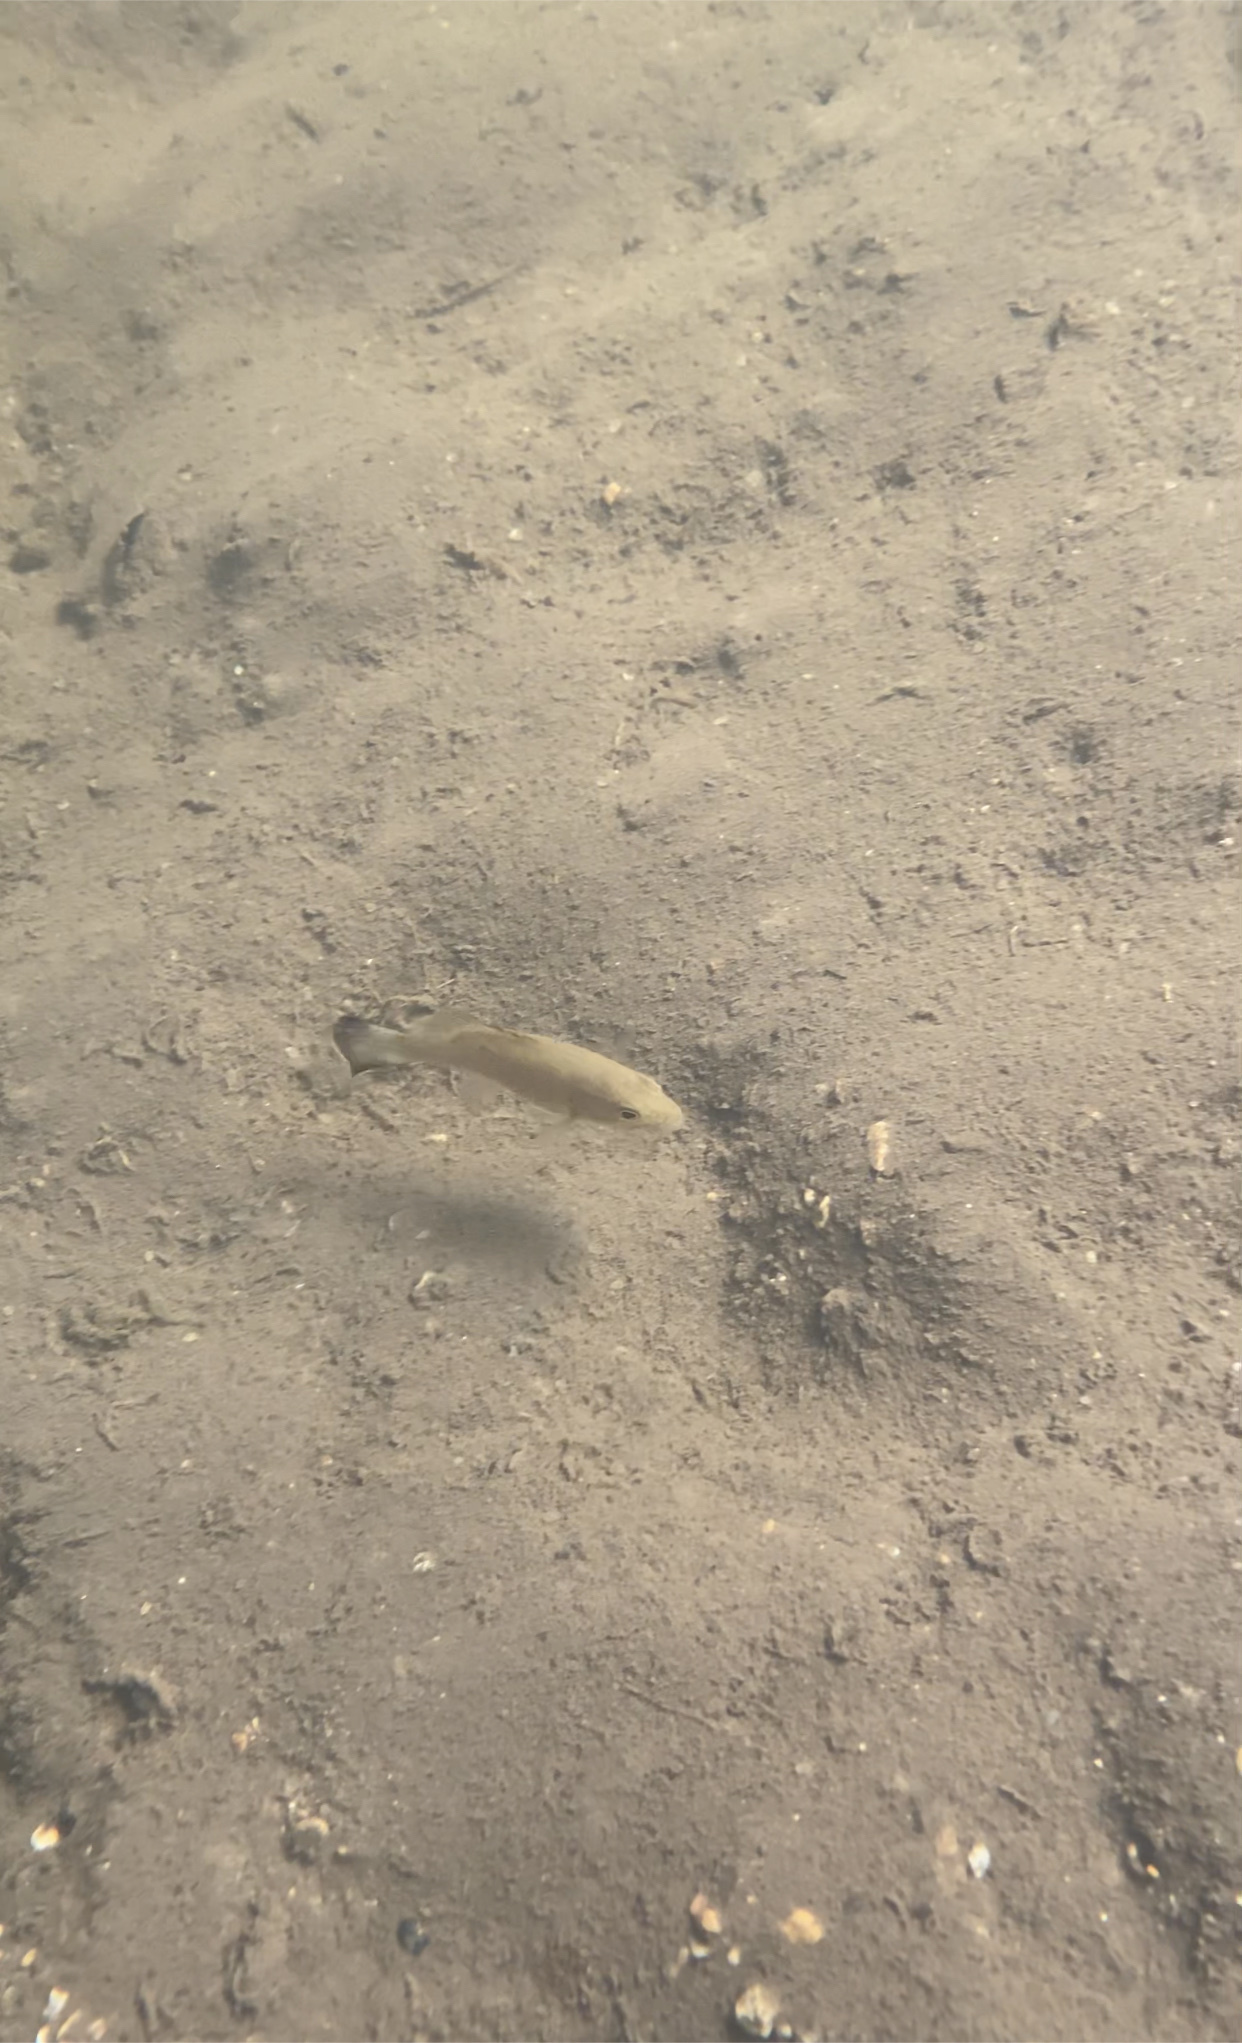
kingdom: Animalia
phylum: Chordata
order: Perciformes
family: Centrarchidae
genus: Micropterus
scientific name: Micropterus dolomieu
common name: Smallmouth bass
